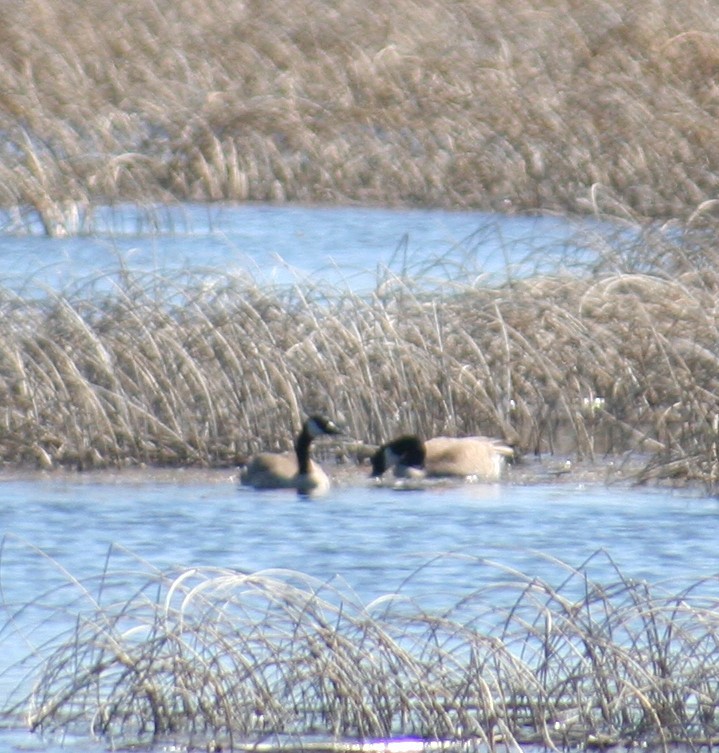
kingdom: Animalia
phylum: Chordata
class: Aves
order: Anseriformes
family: Anatidae
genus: Branta
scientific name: Branta canadensis
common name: Canada goose
